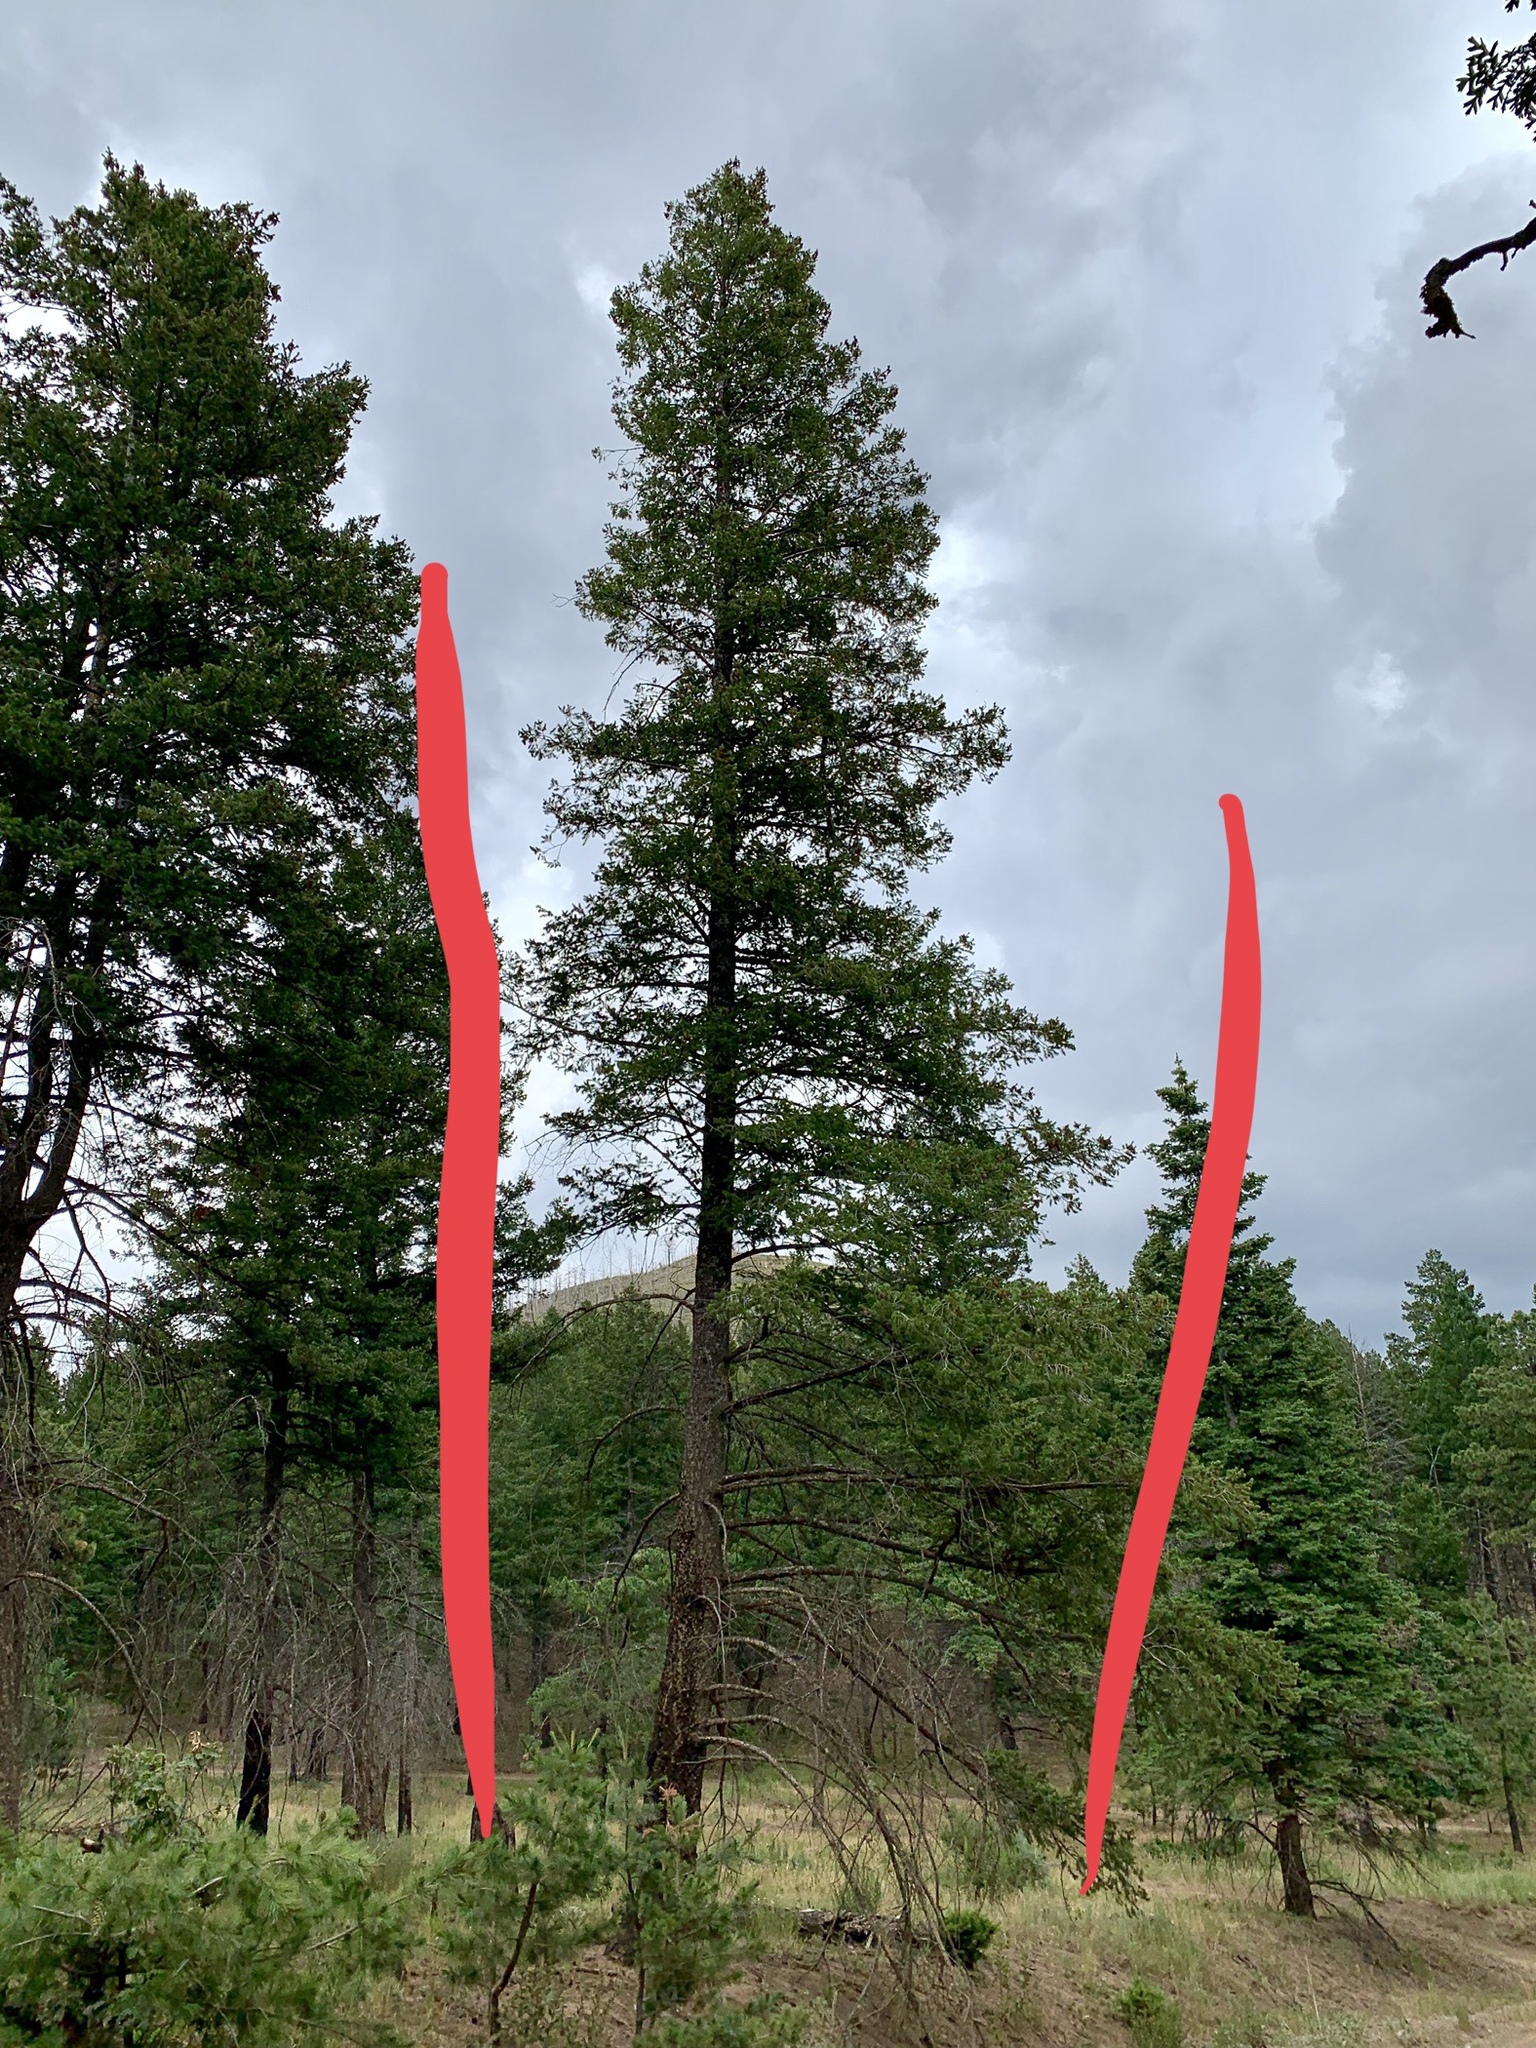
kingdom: Plantae
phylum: Tracheophyta
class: Pinopsida
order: Pinales
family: Pinaceae
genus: Pseudotsuga
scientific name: Pseudotsuga menziesii
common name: Douglas fir
